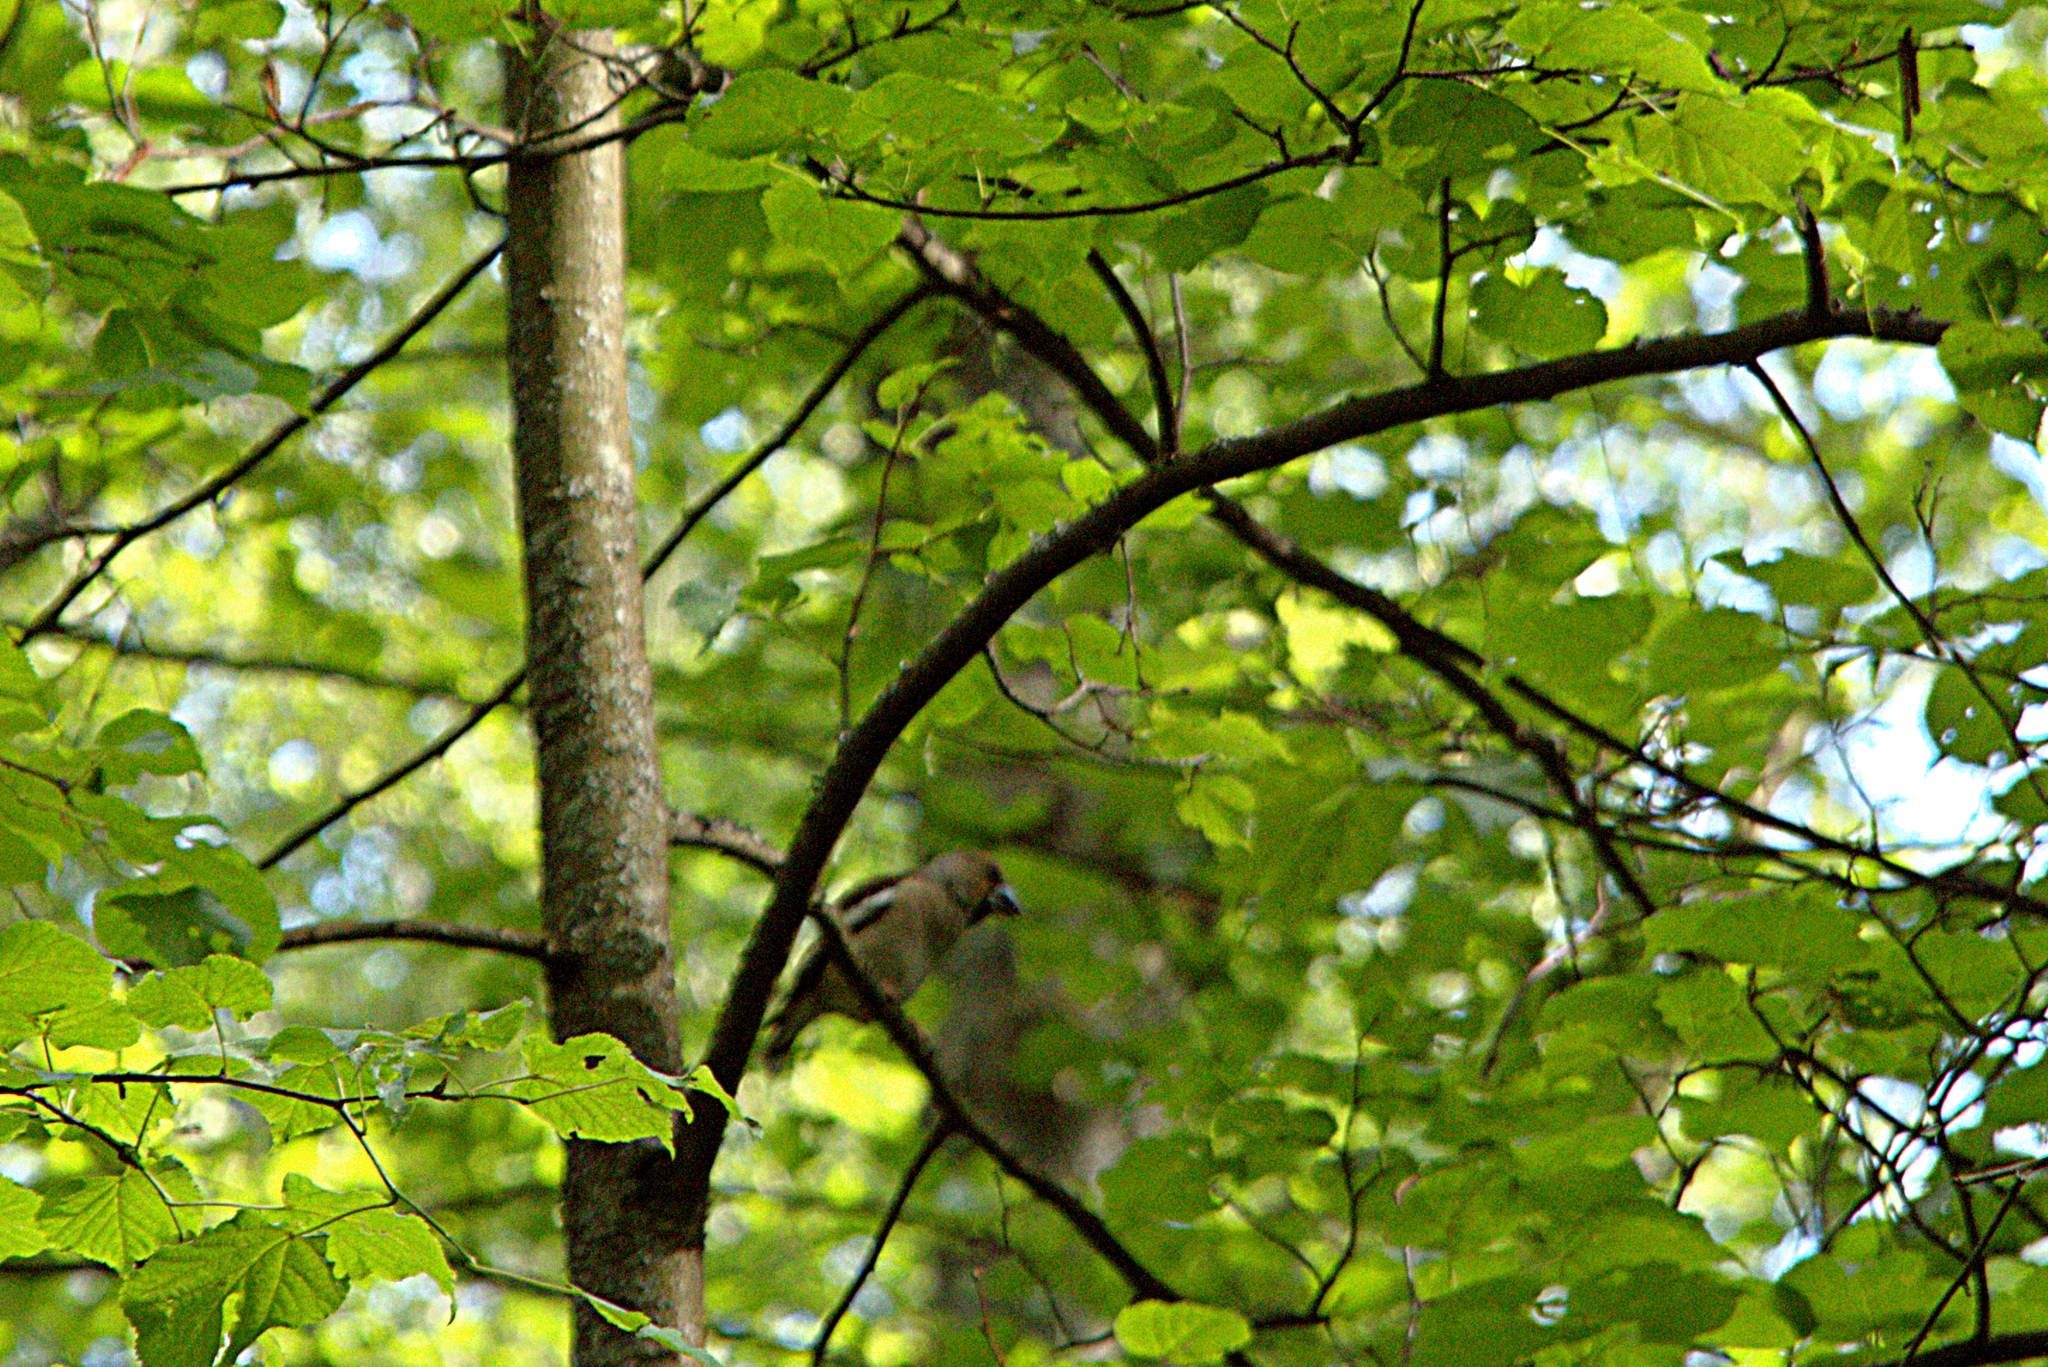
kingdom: Animalia
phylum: Chordata
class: Aves
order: Passeriformes
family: Fringillidae
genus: Coccothraustes
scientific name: Coccothraustes coccothraustes
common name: Hawfinch
